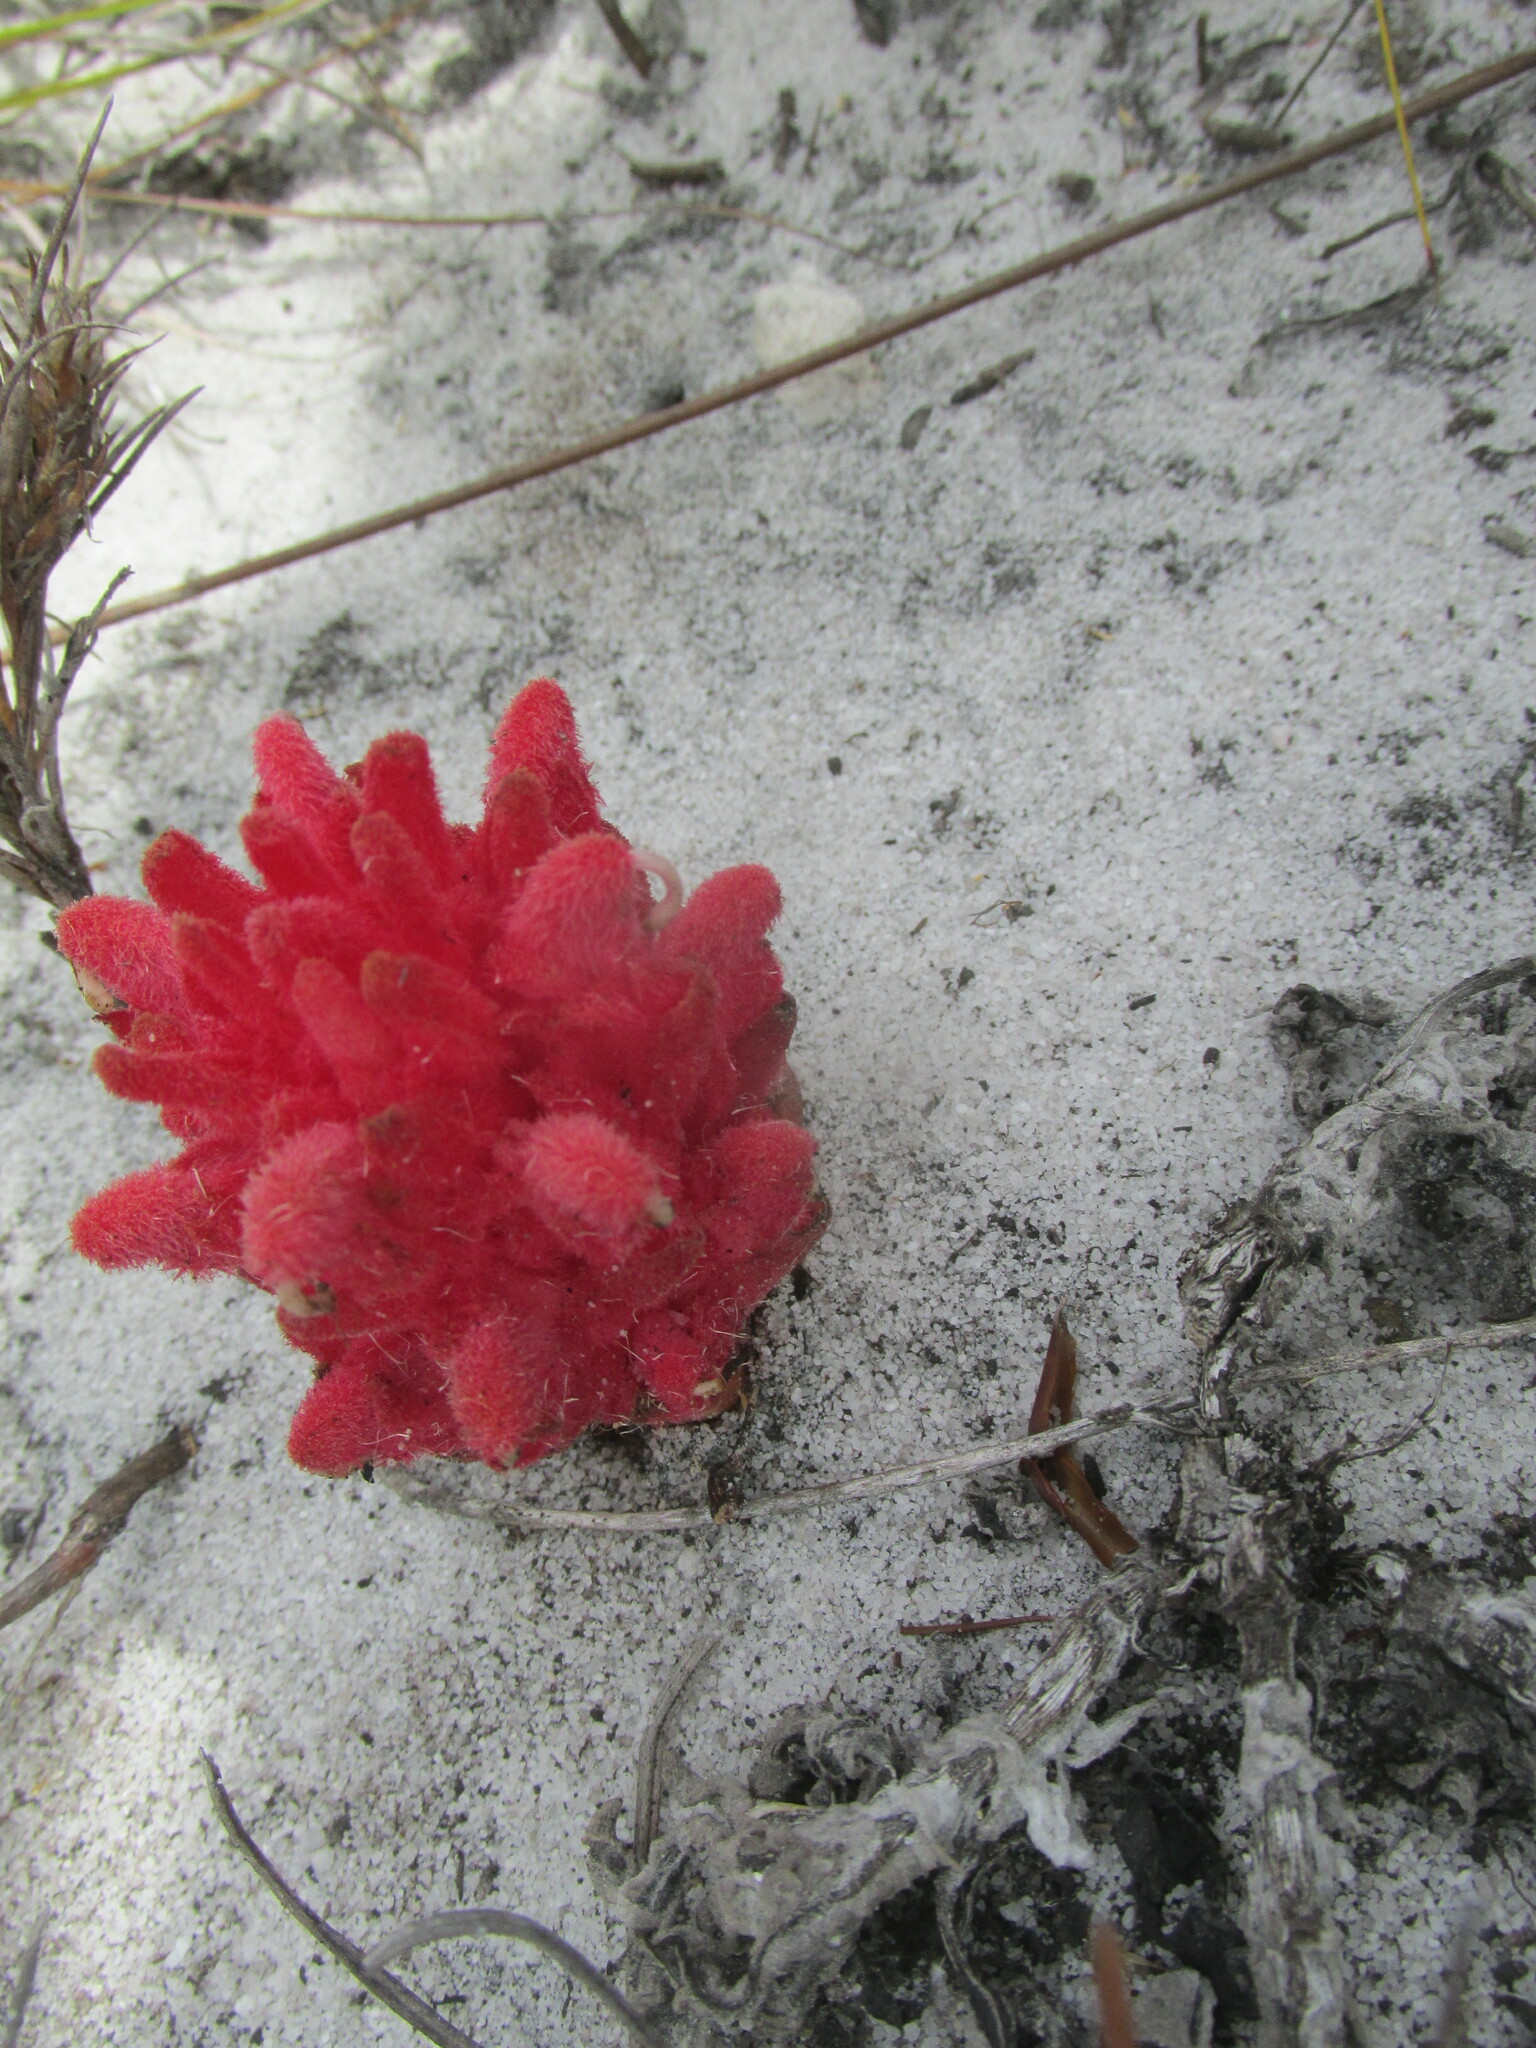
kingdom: Plantae
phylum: Tracheophyta
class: Magnoliopsida
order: Lamiales
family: Orobanchaceae
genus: Hyobanche
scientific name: Hyobanche sanguinea
